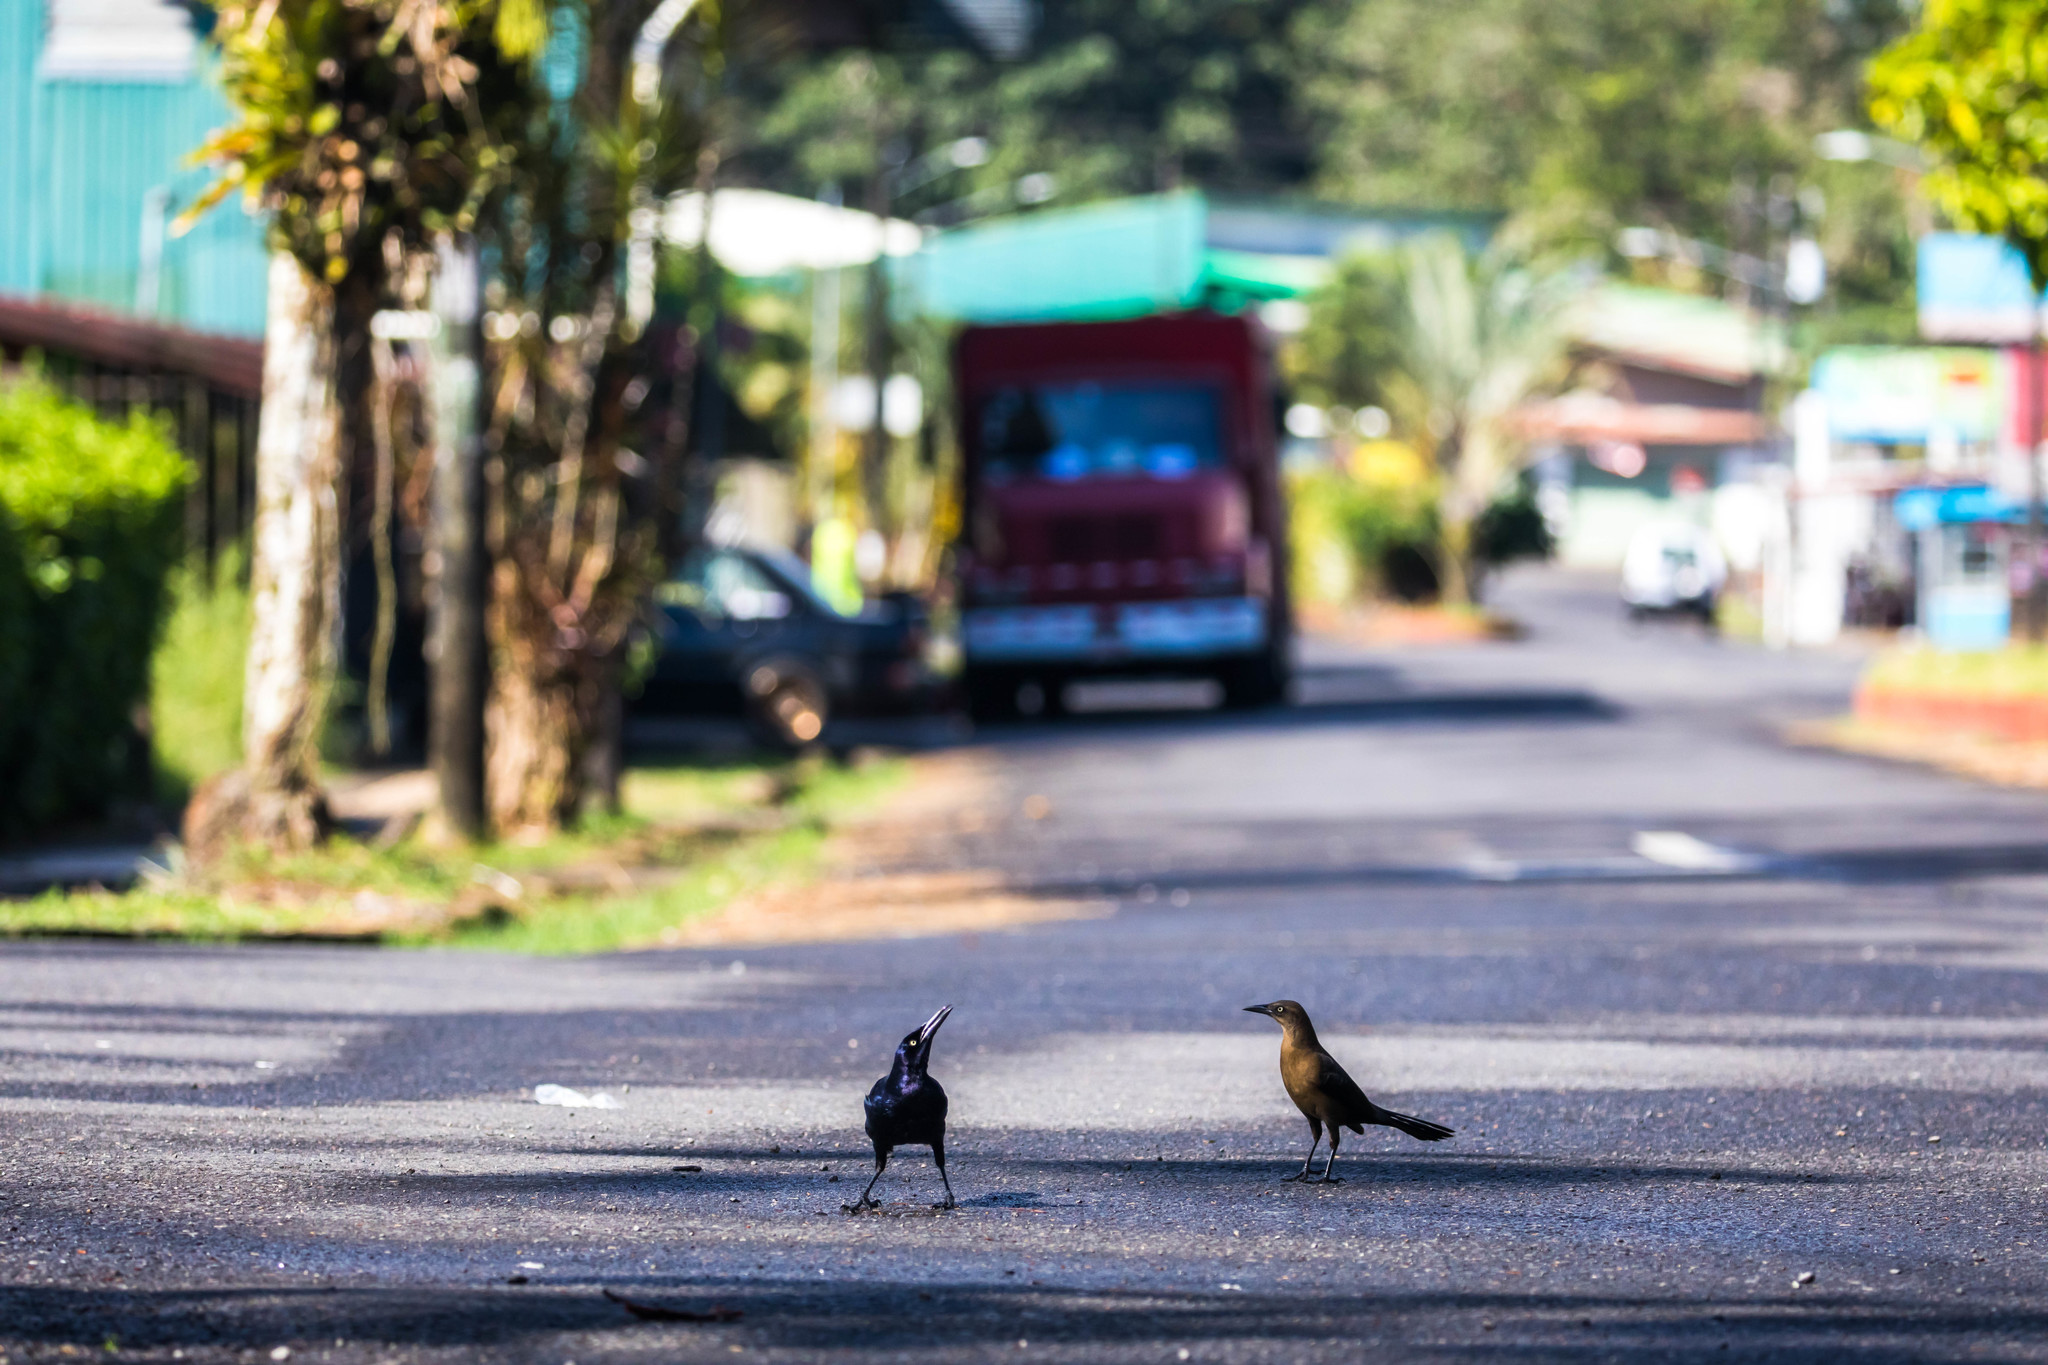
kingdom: Animalia
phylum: Chordata
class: Aves
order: Passeriformes
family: Icteridae
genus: Quiscalus
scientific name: Quiscalus mexicanus
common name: Great-tailed grackle
